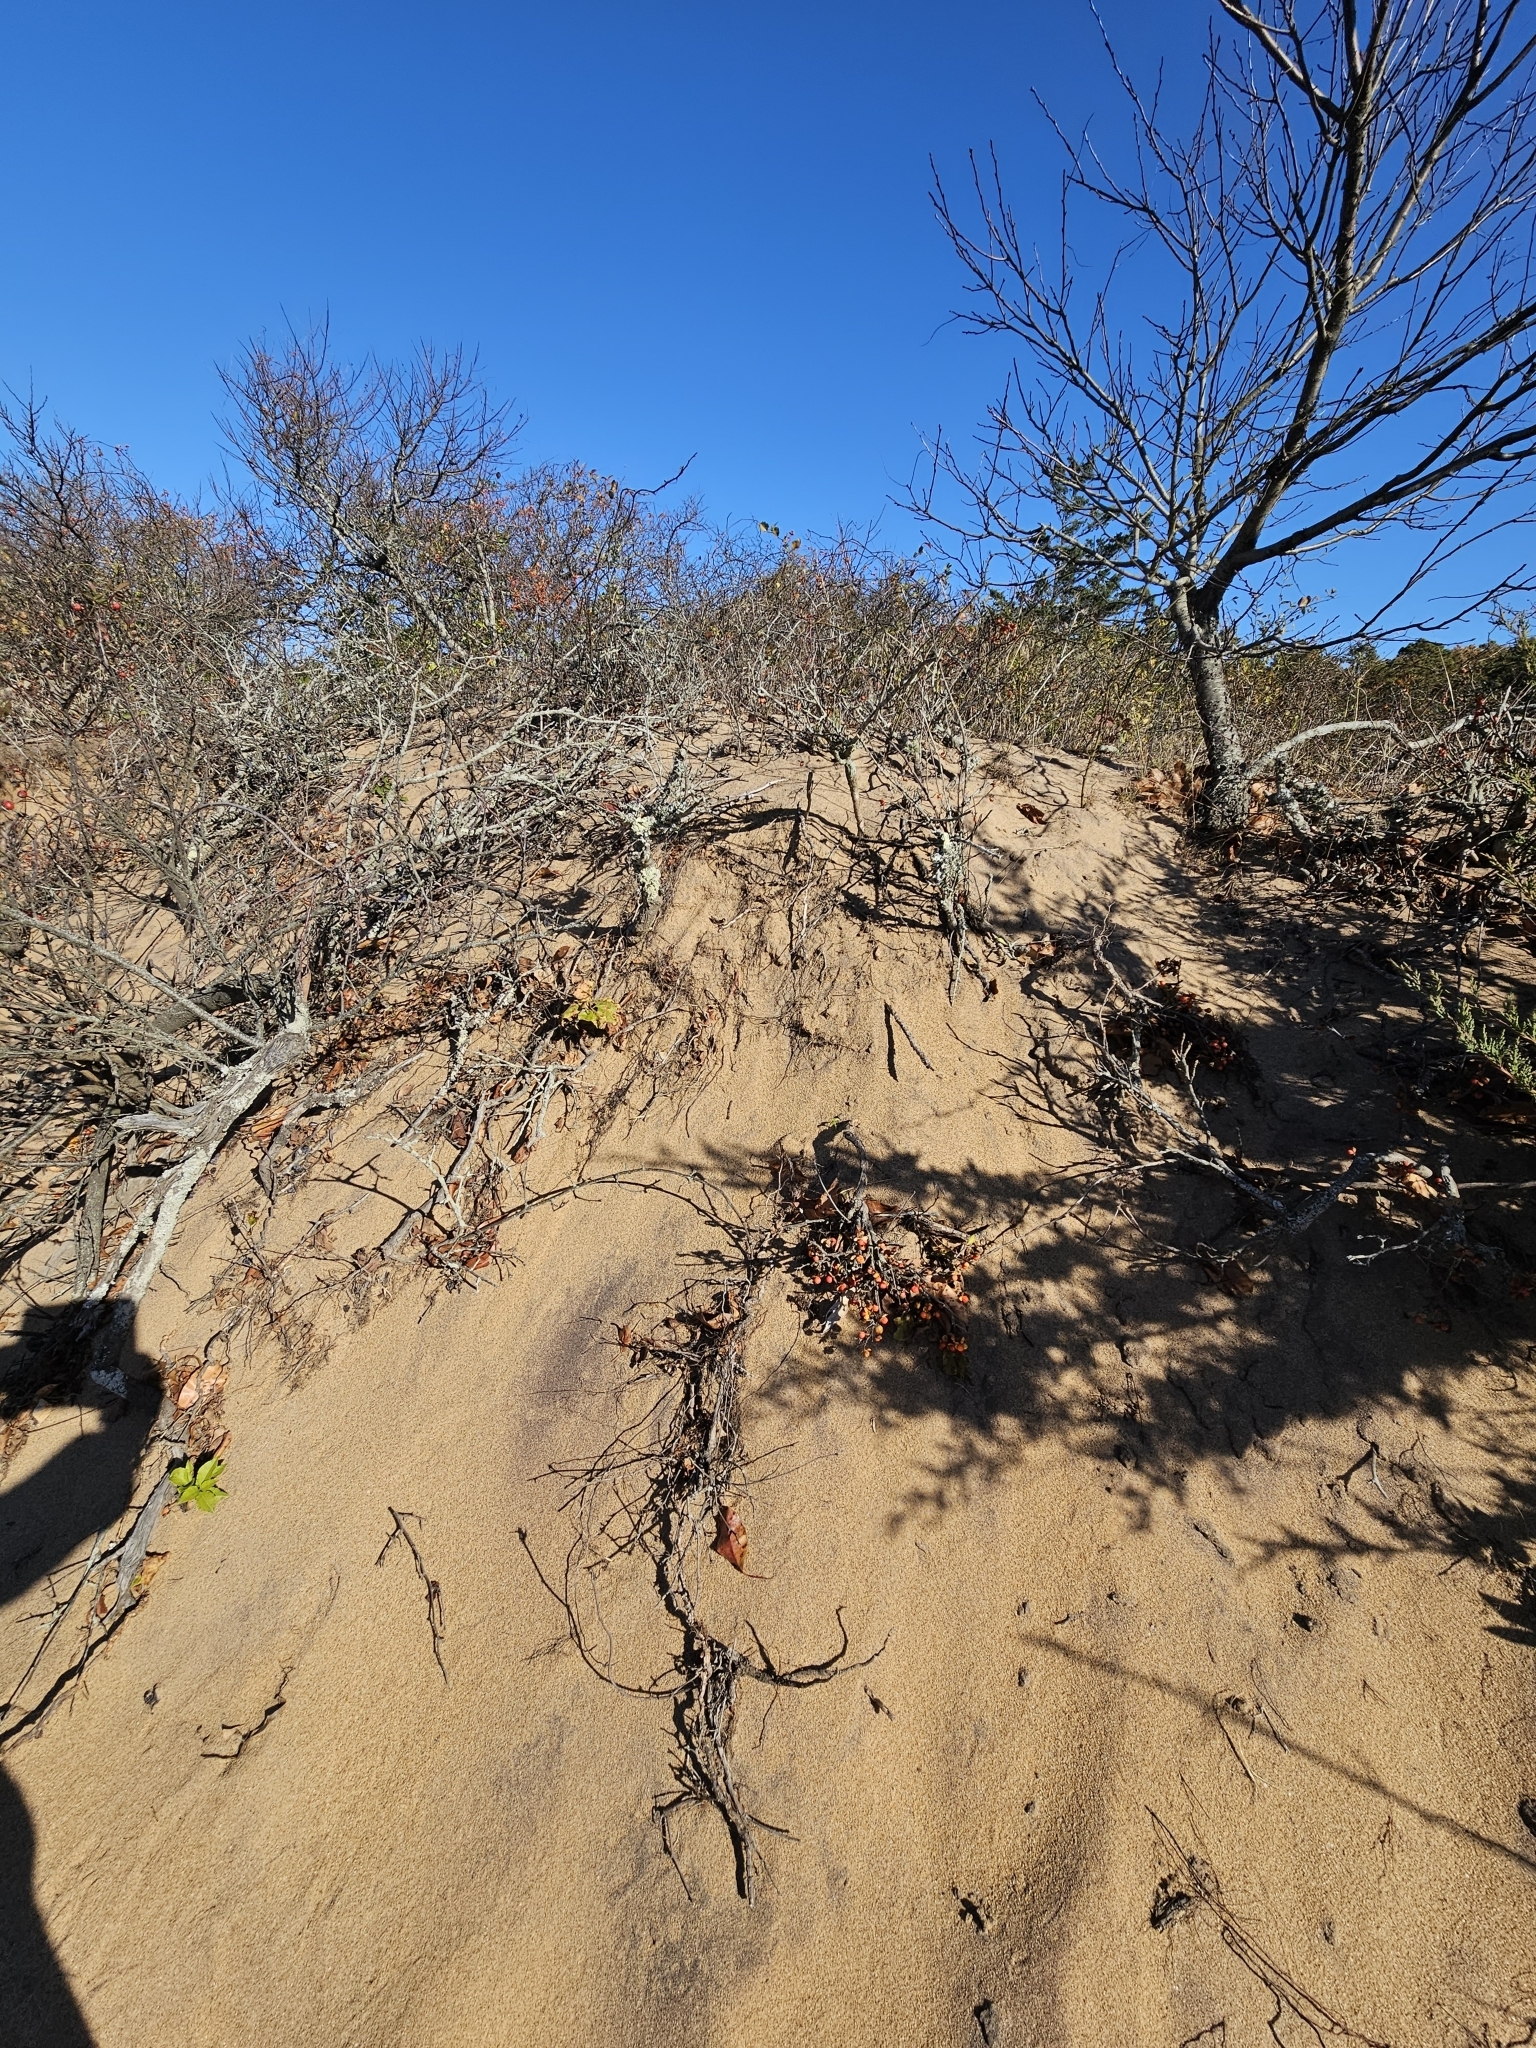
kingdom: Plantae
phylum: Tracheophyta
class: Magnoliopsida
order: Celastrales
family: Celastraceae
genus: Celastrus
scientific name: Celastrus orbiculatus
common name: Oriental bittersweet
